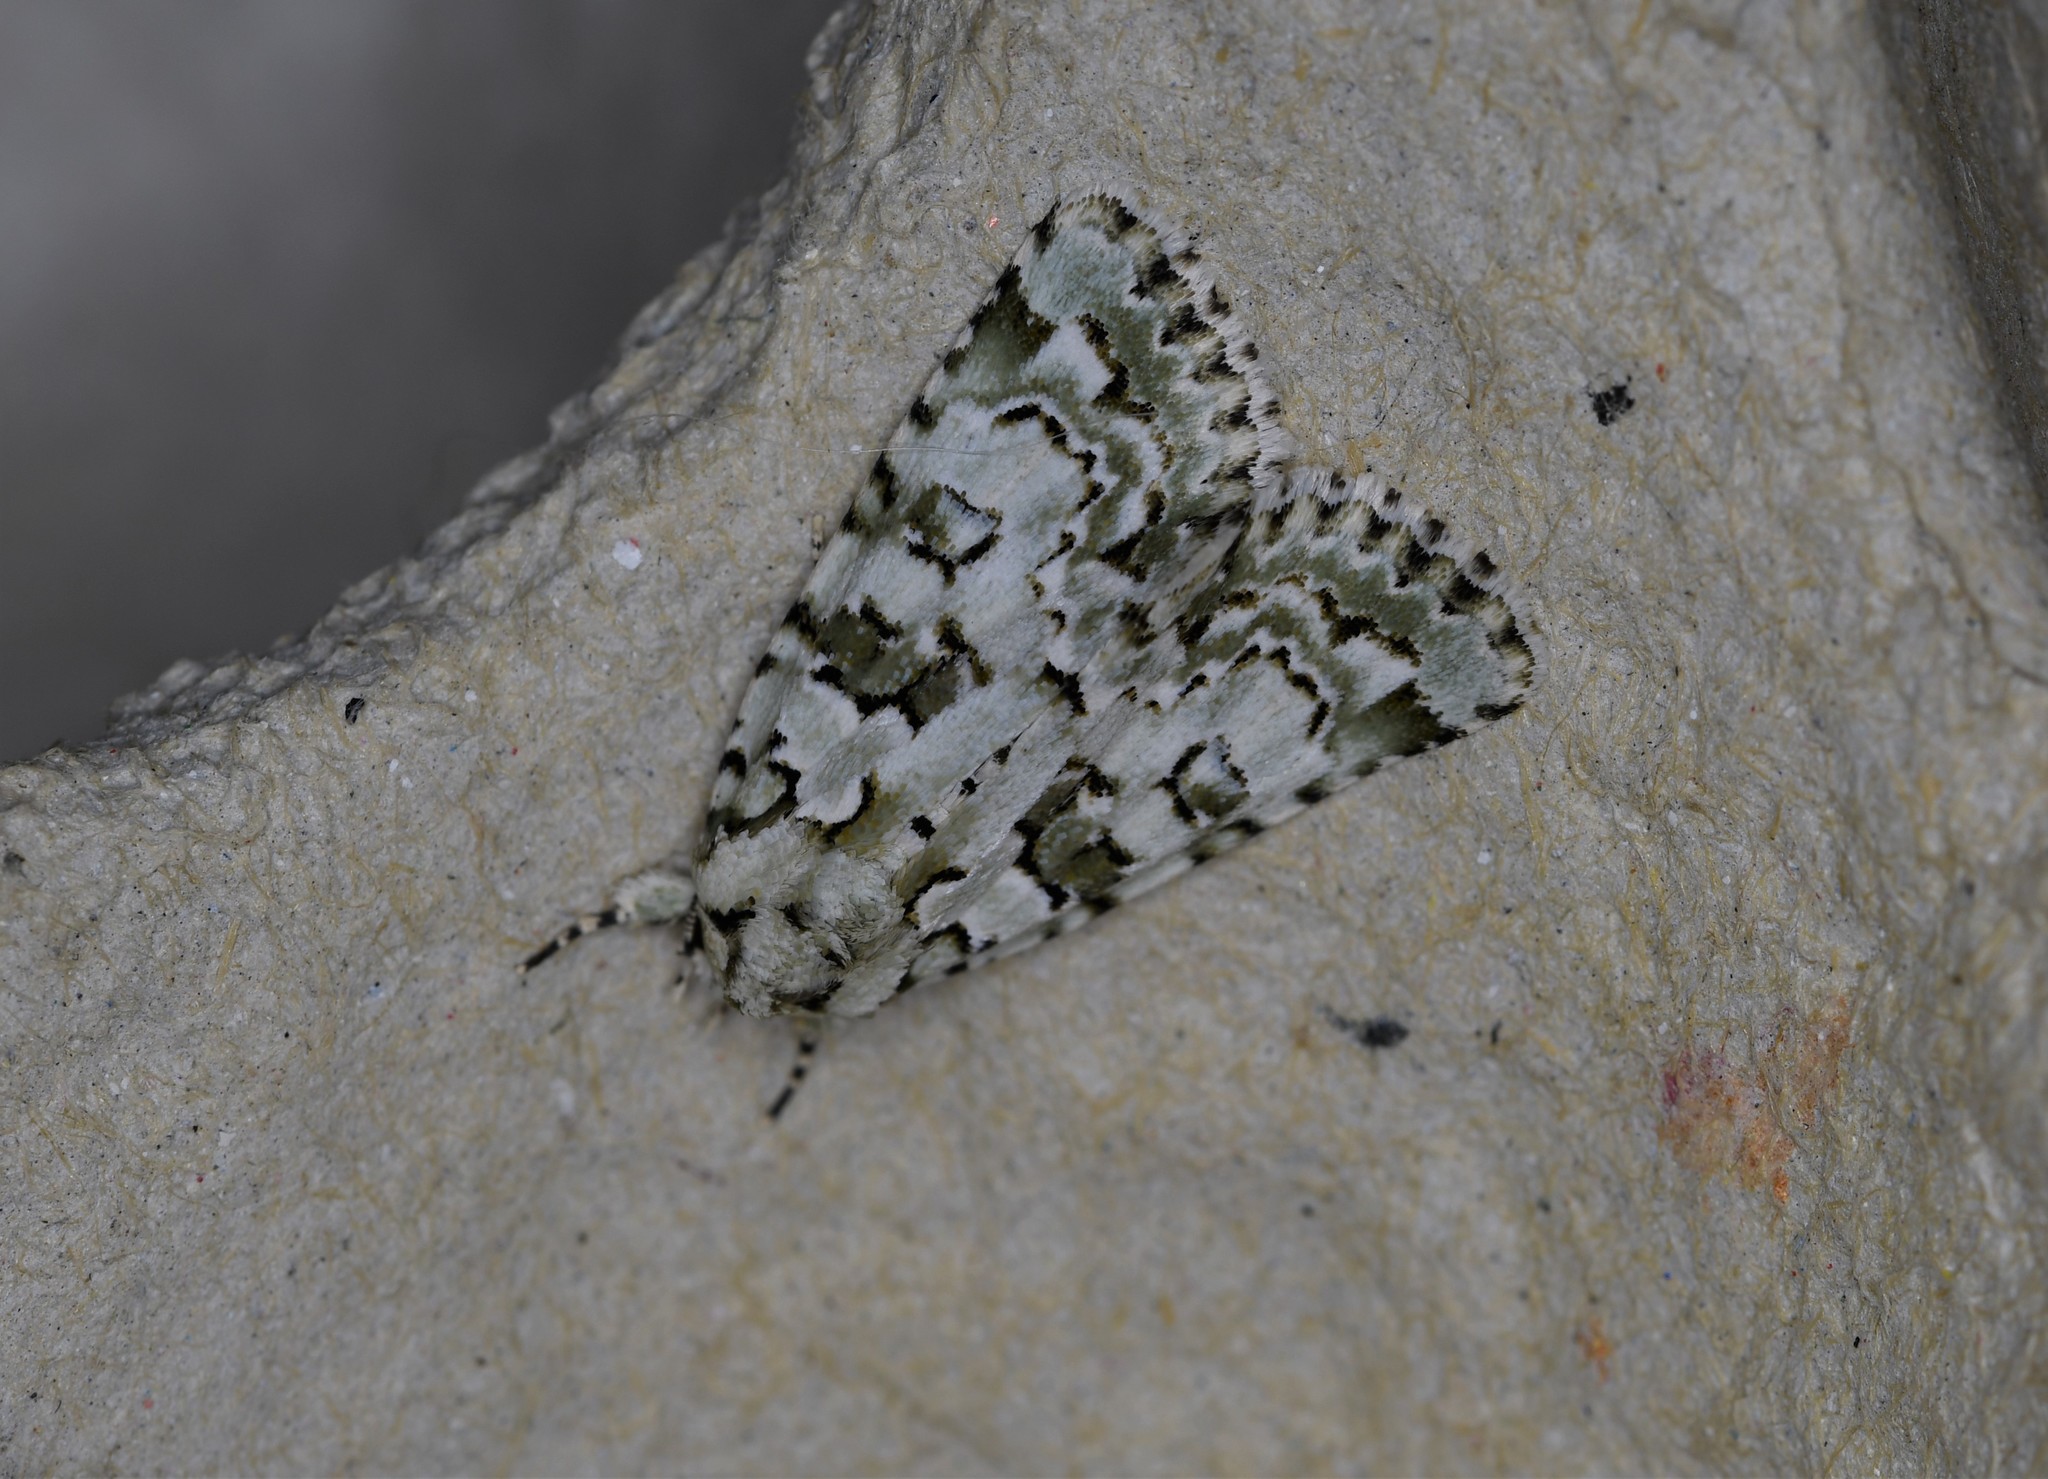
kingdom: Animalia
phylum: Arthropoda
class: Insecta
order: Lepidoptera
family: Noctuidae
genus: Nyctobrya
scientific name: Nyctobrya muralis
